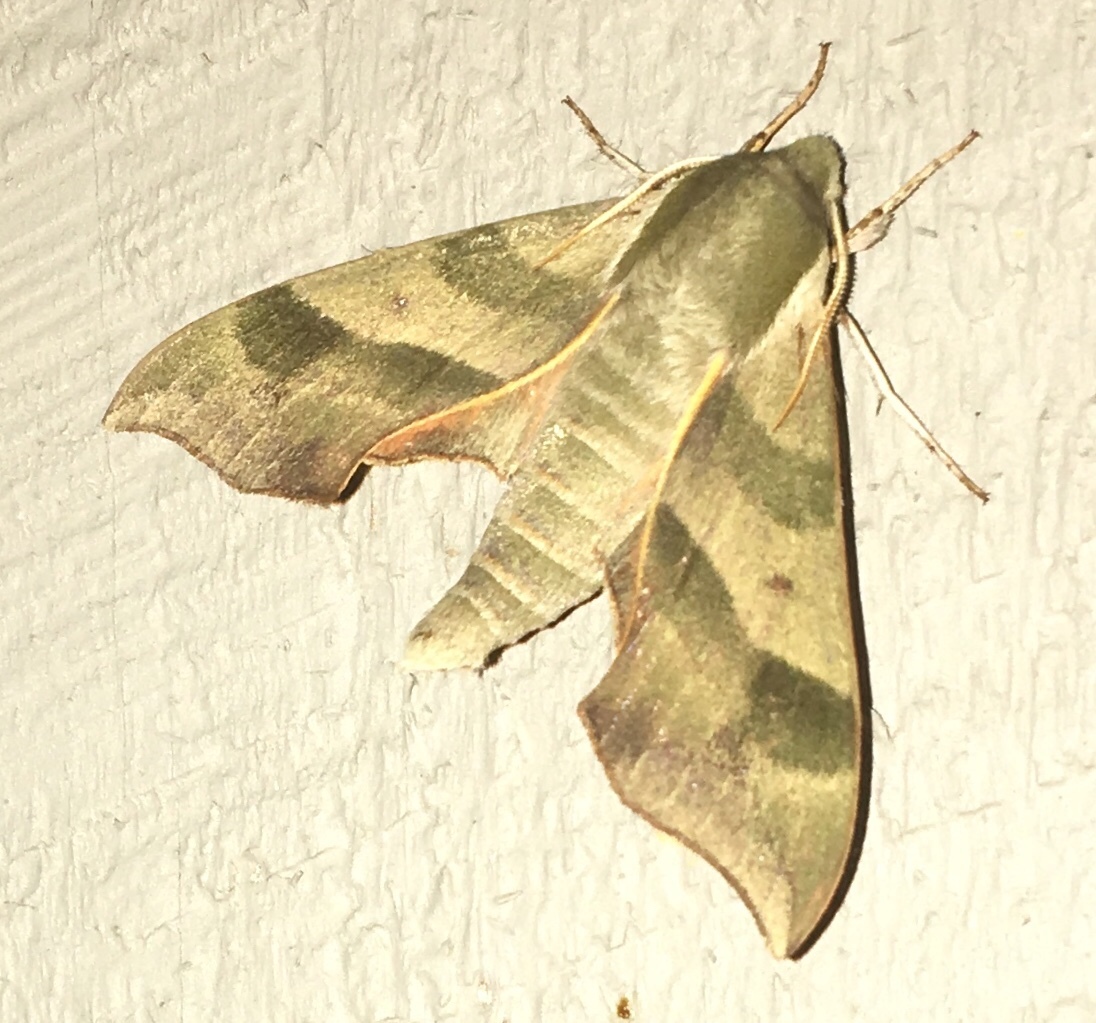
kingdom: Animalia
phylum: Arthropoda
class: Insecta
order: Lepidoptera
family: Sphingidae
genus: Darapsa
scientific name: Darapsa myron
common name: Hog sphinx
